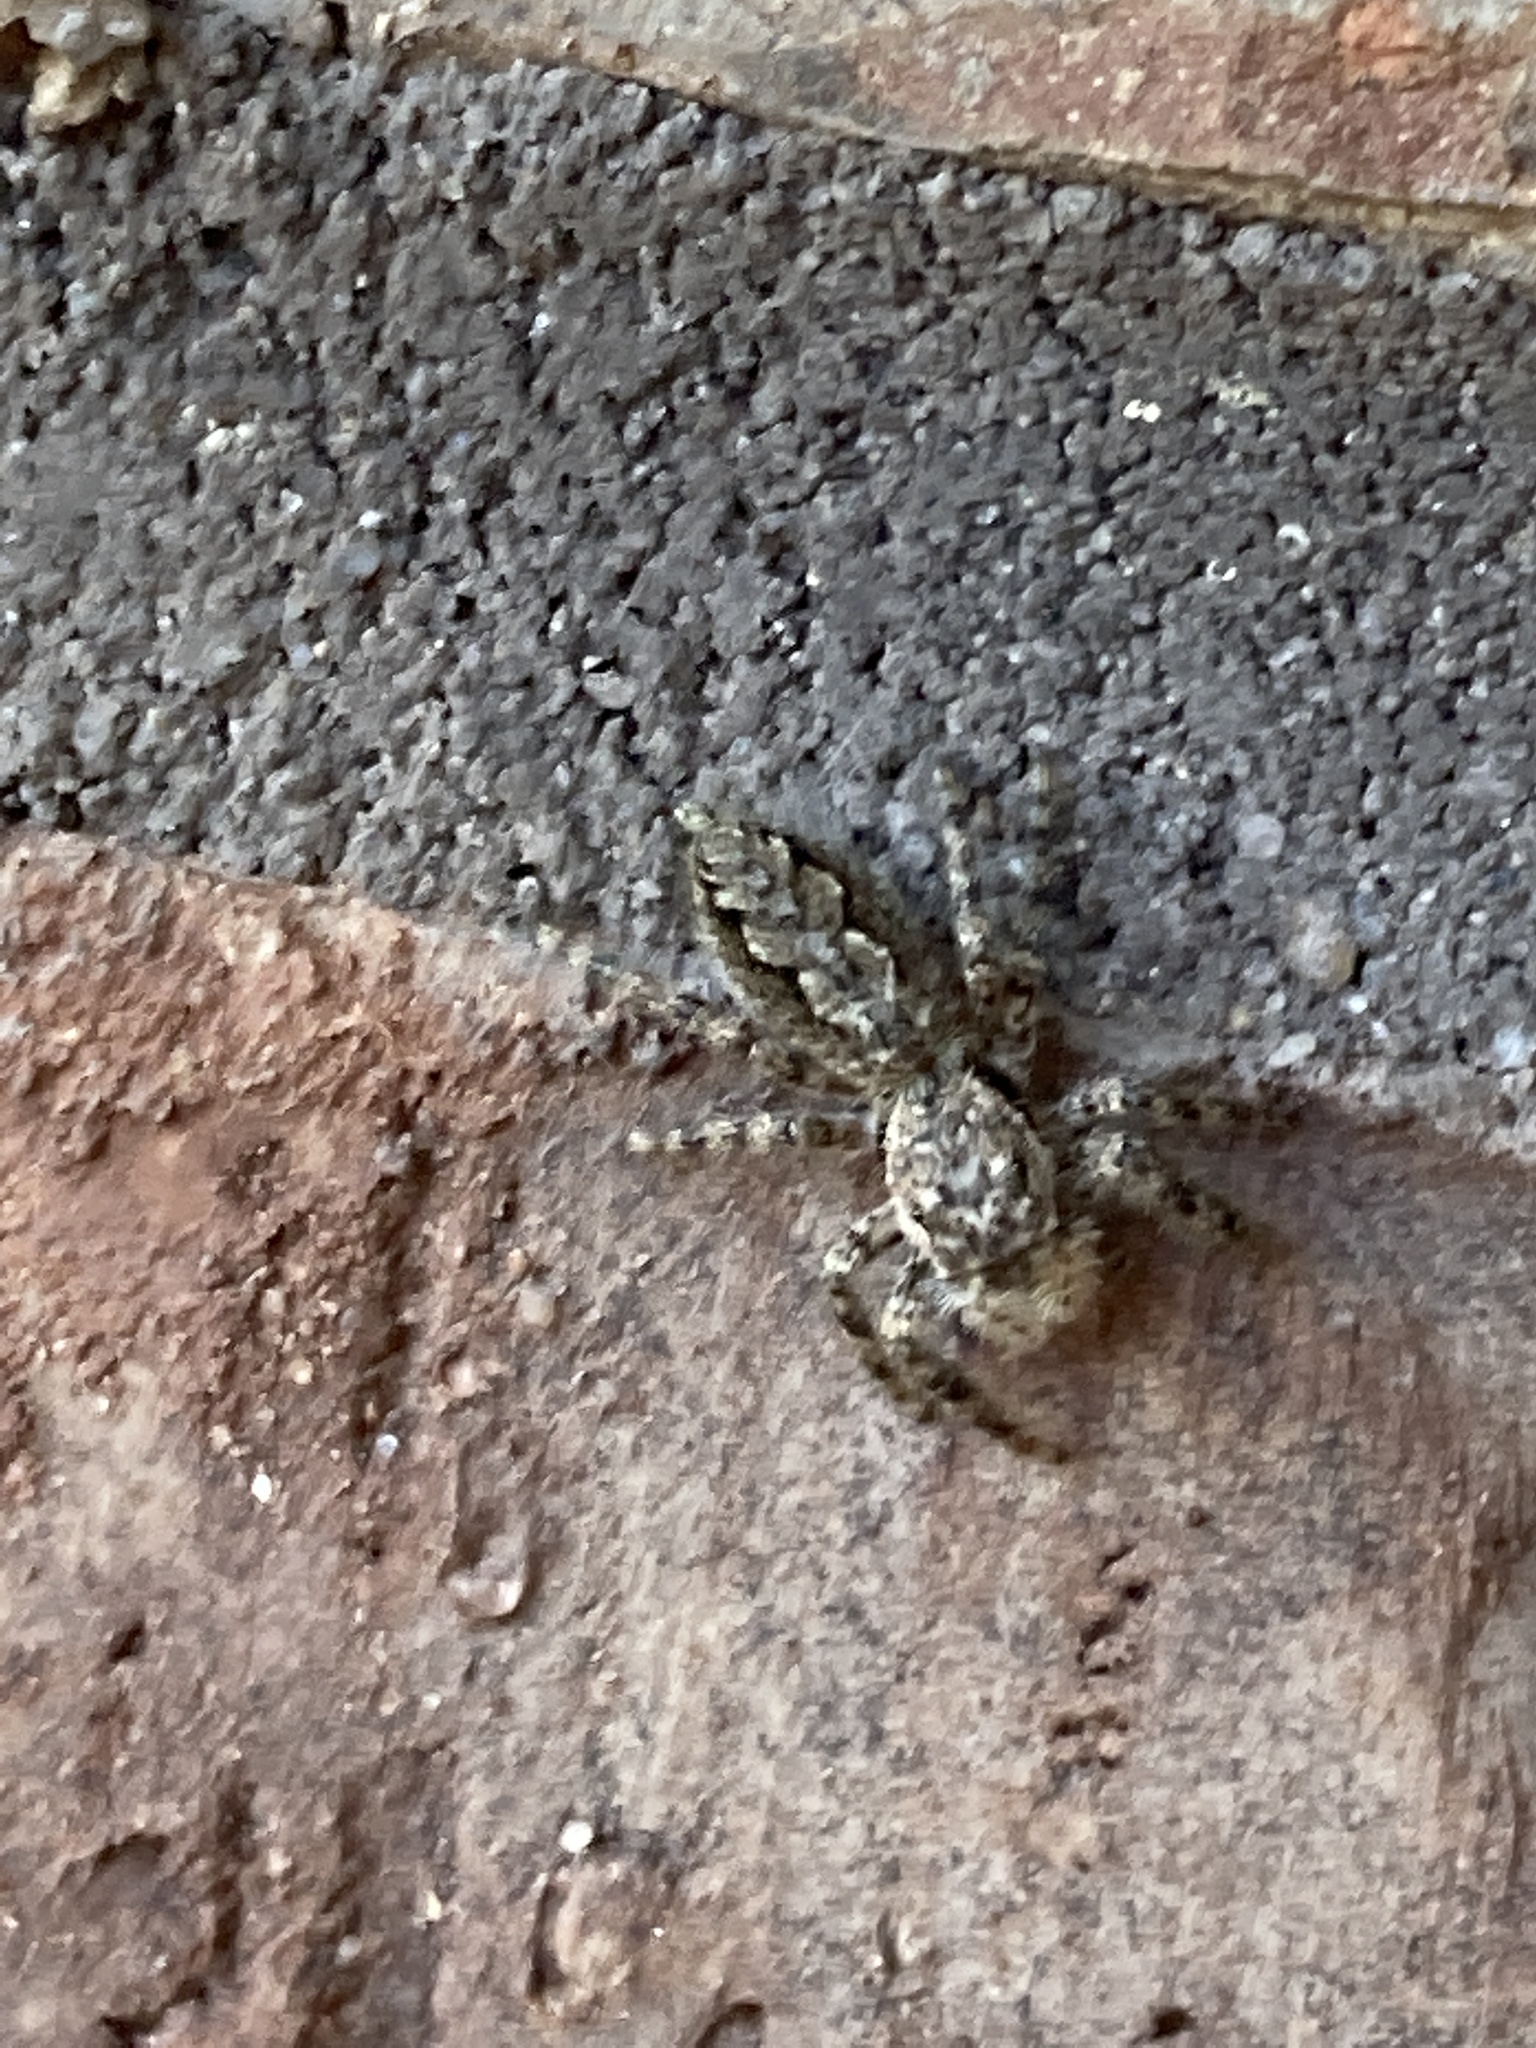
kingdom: Animalia
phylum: Arthropoda
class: Arachnida
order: Araneae
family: Salticidae
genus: Platycryptus
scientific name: Platycryptus undatus
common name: Tan jumping spider
